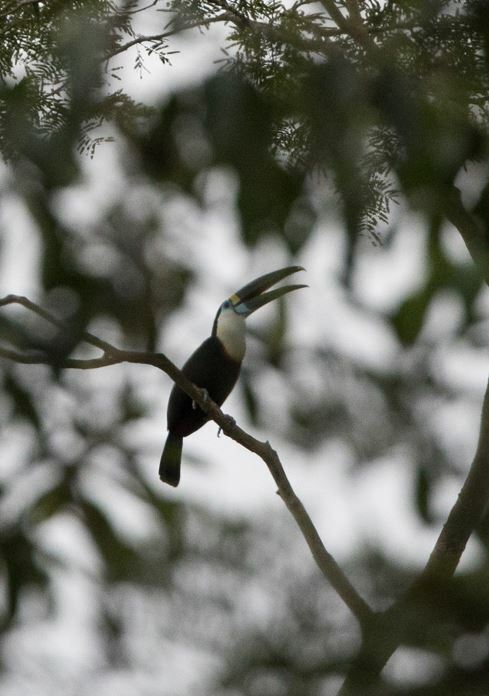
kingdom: Animalia
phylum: Chordata
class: Aves
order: Piciformes
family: Ramphastidae
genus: Ramphastos
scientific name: Ramphastos tucanus
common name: White-throated toucan
